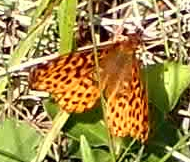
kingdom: Animalia
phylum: Arthropoda
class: Insecta
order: Lepidoptera
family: Nymphalidae
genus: Clossiana
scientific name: Clossiana toddi
